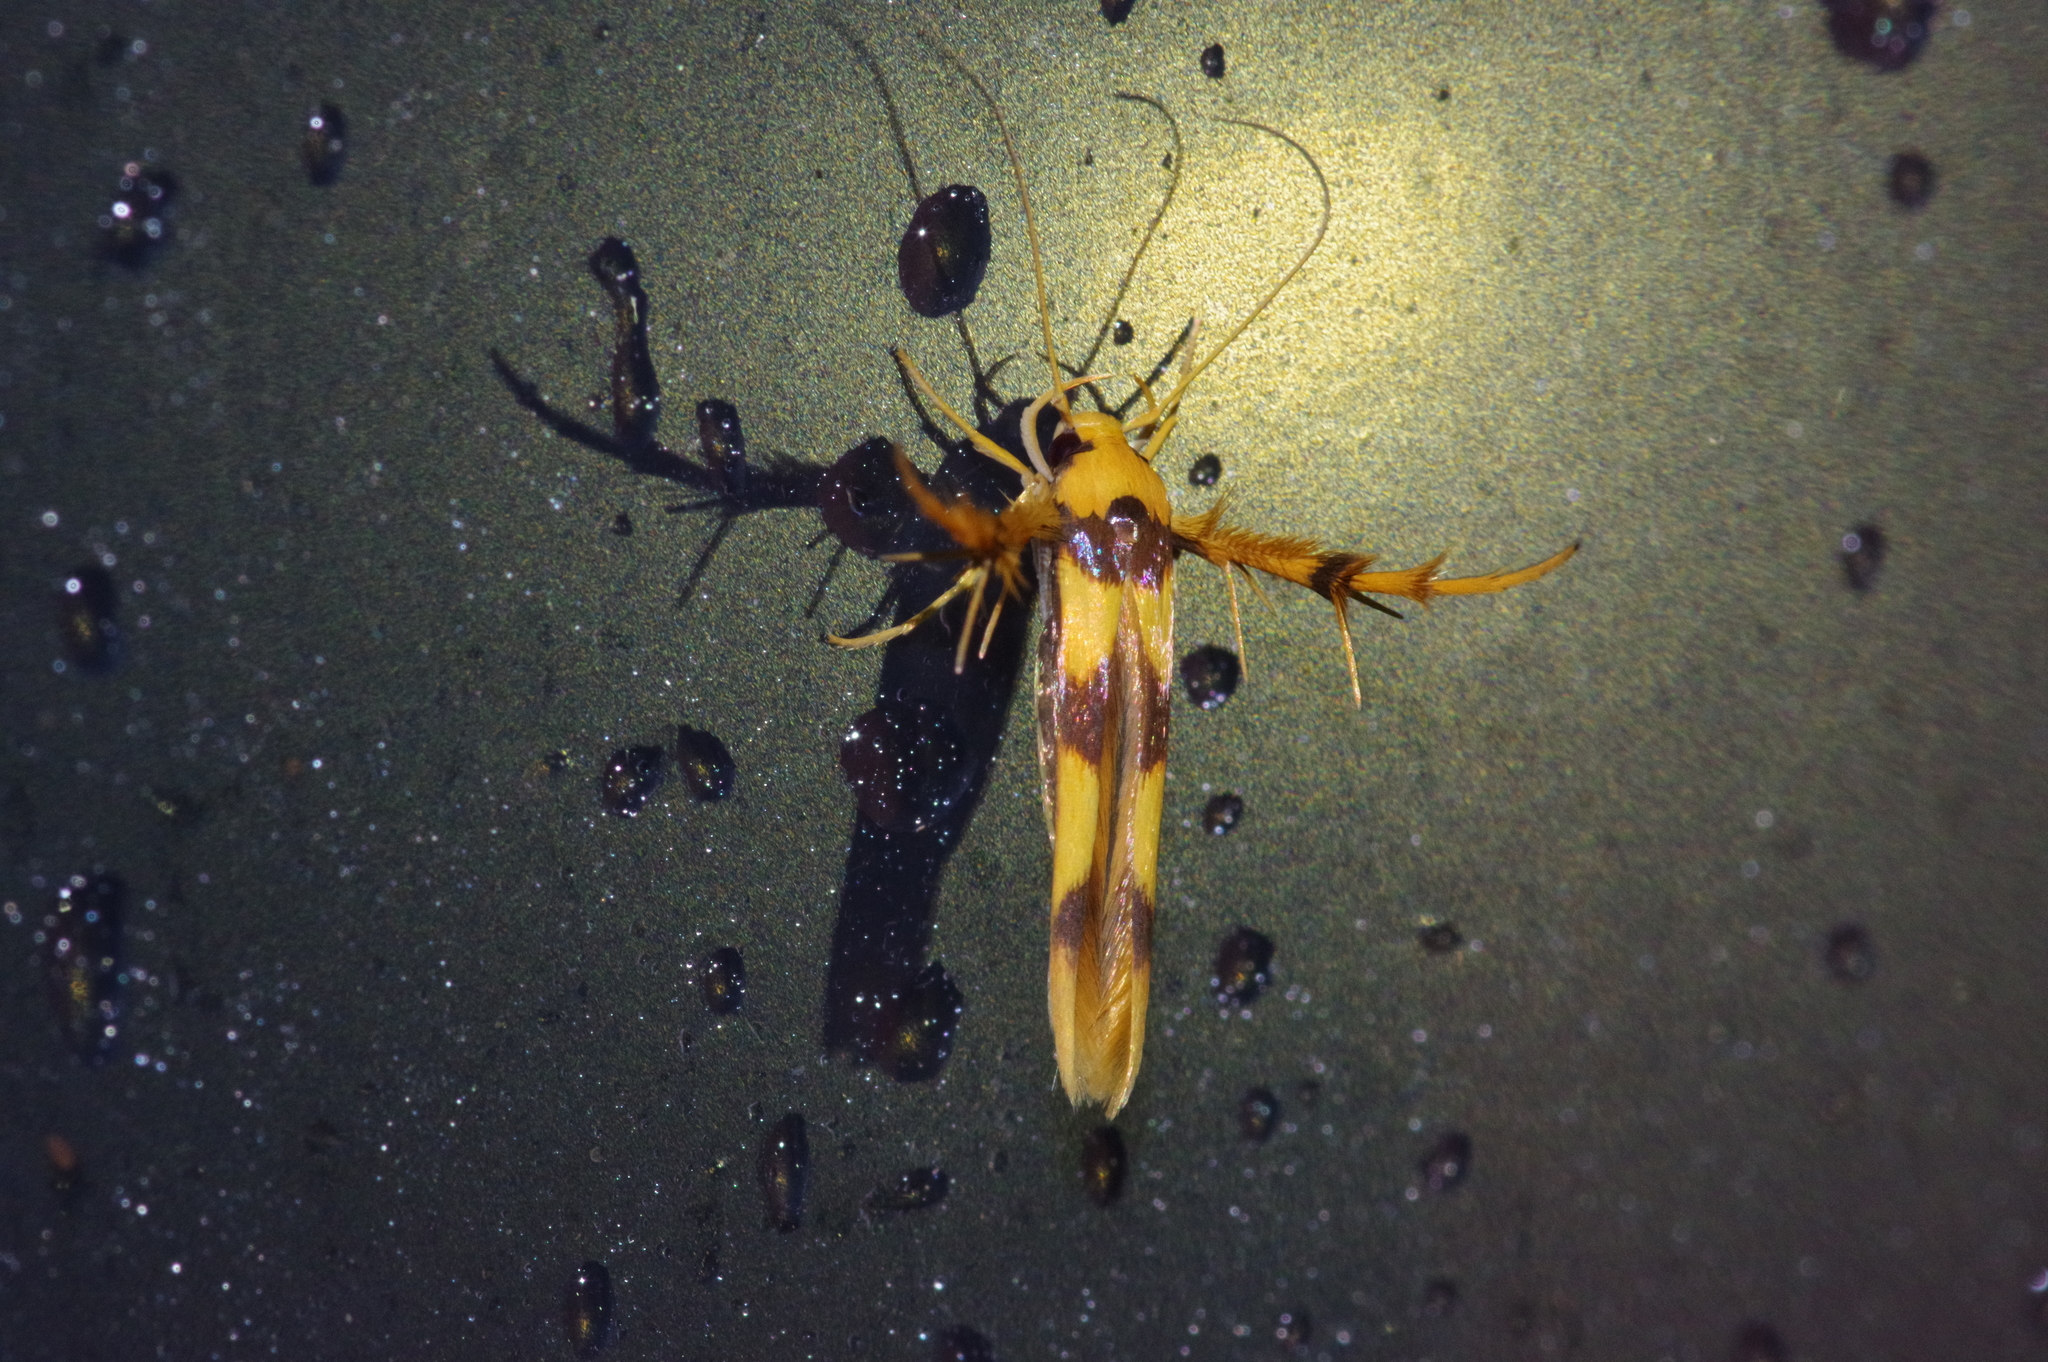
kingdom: Animalia
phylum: Arthropoda
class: Insecta
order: Lepidoptera
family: Stathmopodidae
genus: Stathmopoda
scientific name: Stathmopoda fusciumeraris
